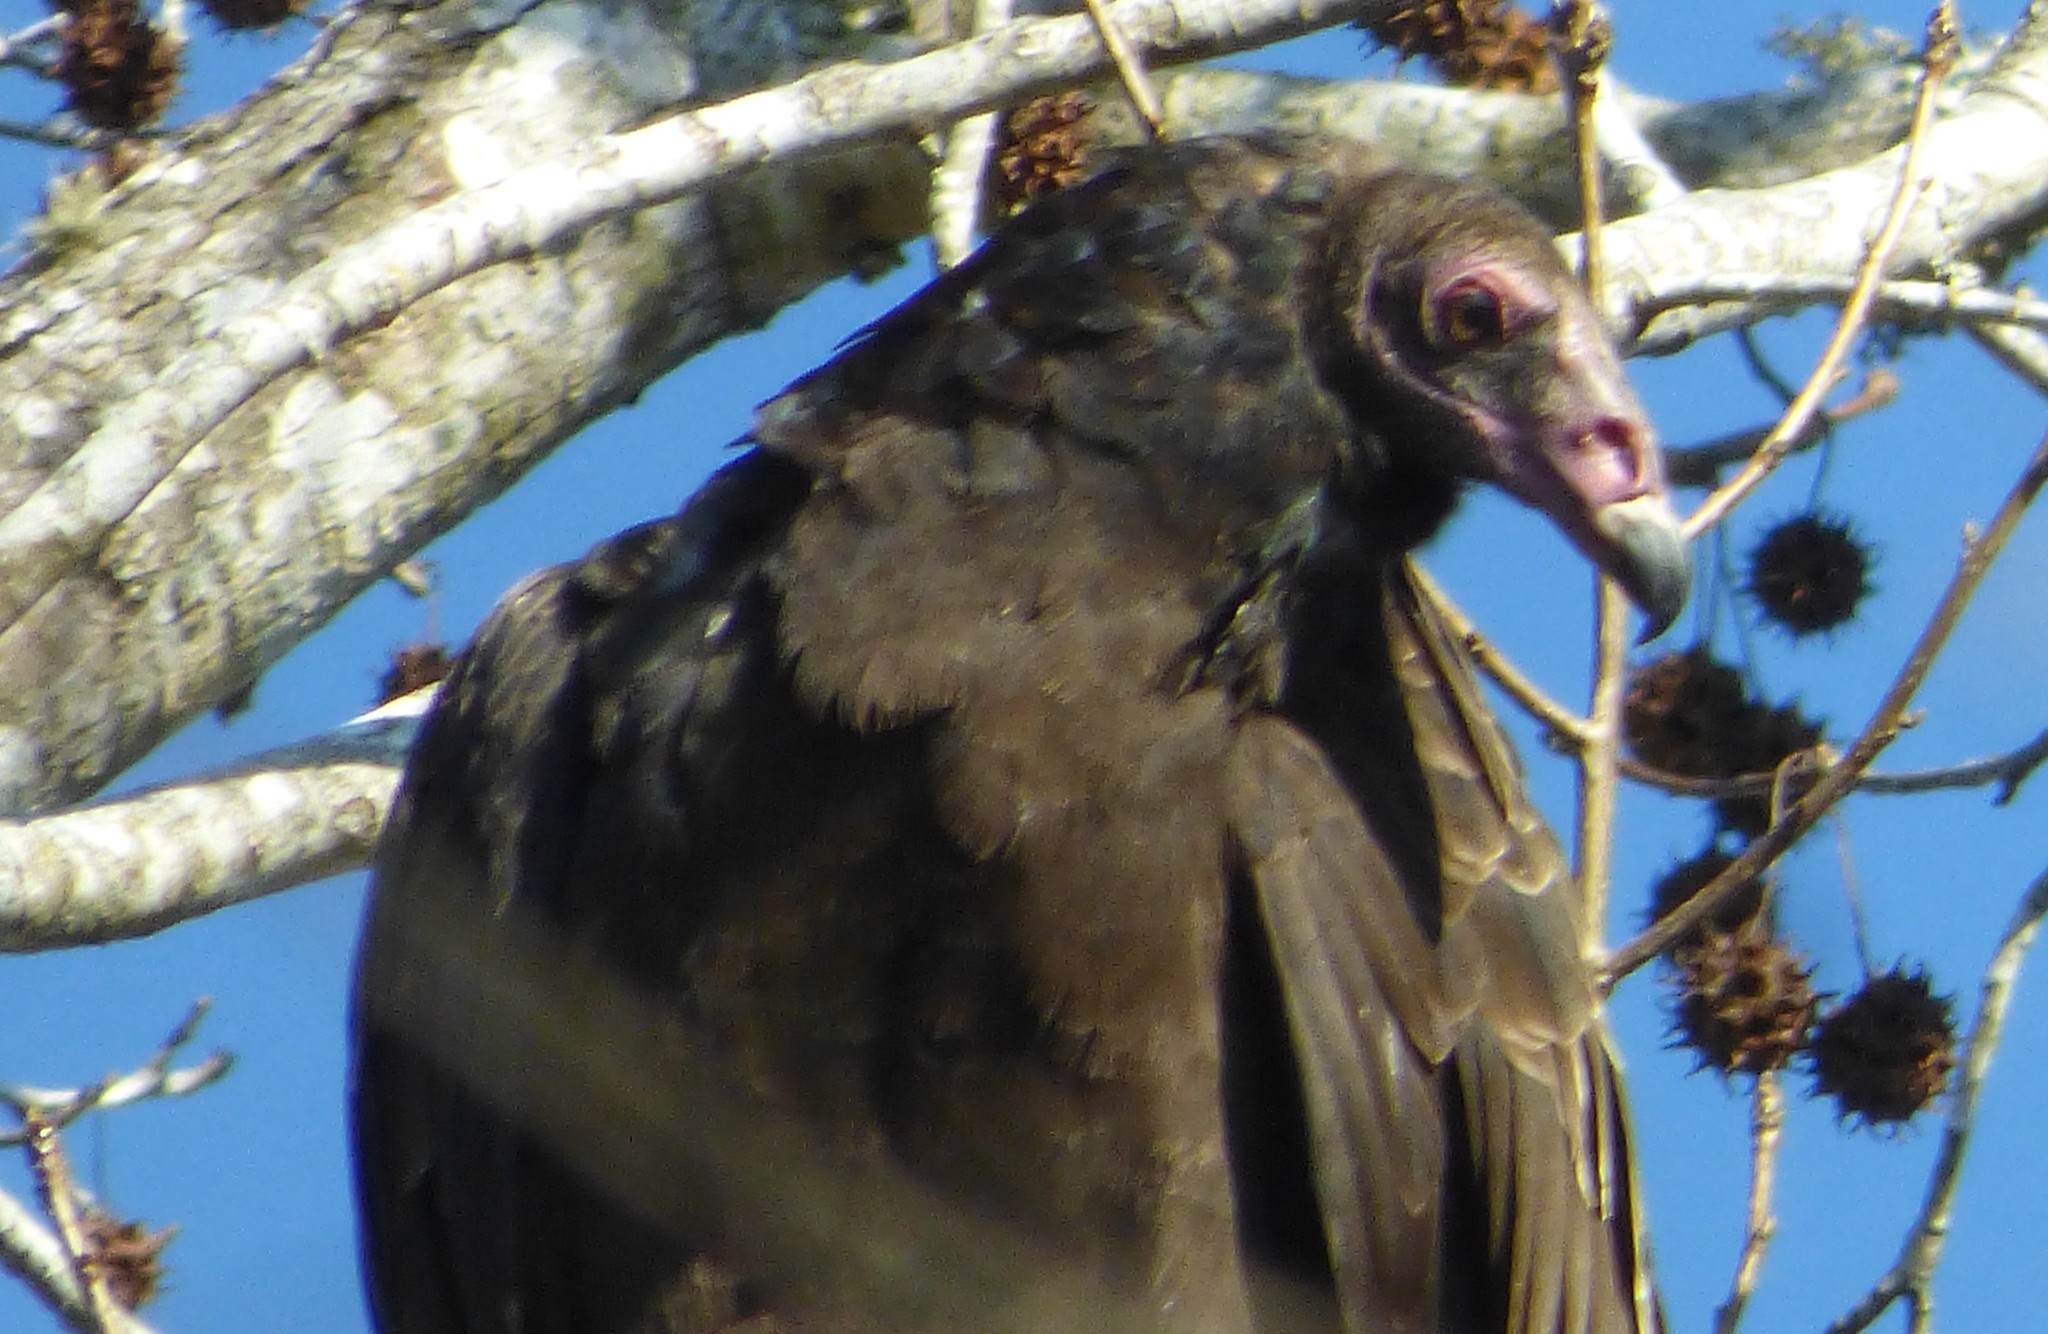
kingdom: Animalia
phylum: Chordata
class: Aves
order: Accipitriformes
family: Cathartidae
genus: Cathartes
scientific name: Cathartes aura
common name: Turkey vulture
